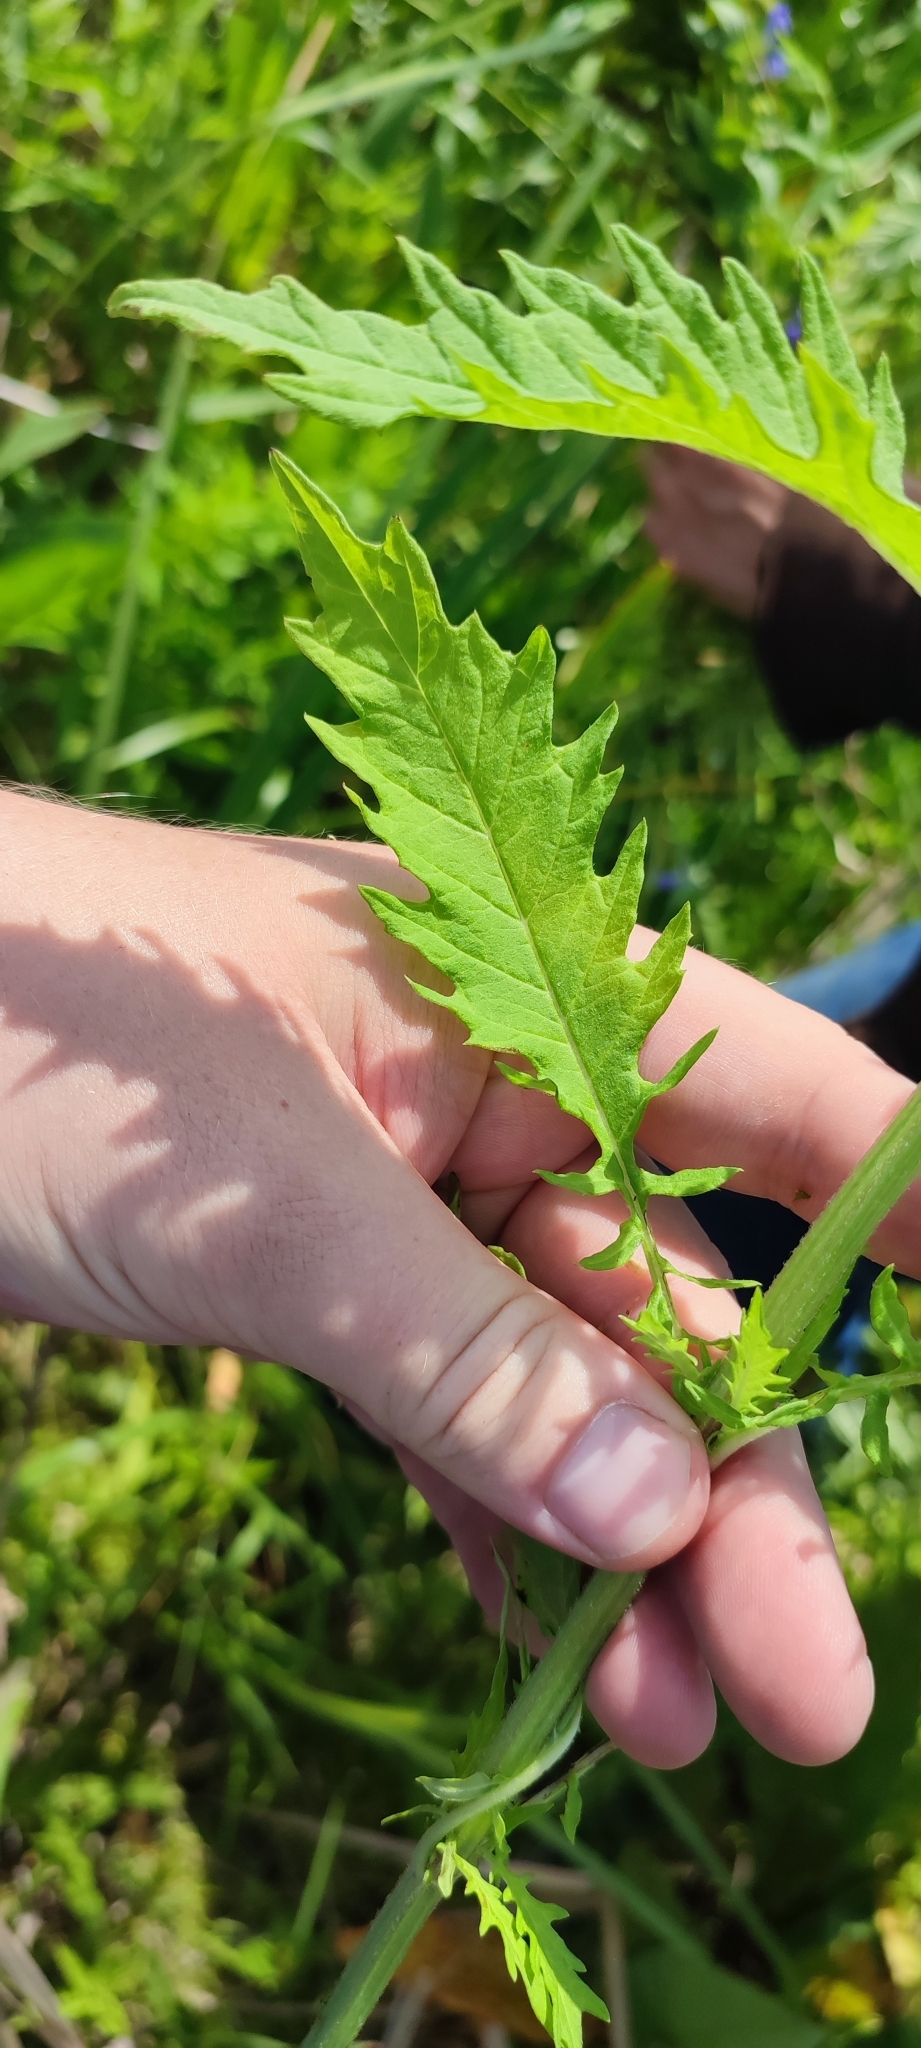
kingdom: Plantae
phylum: Tracheophyta
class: Magnoliopsida
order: Lamiales
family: Lamiaceae
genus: Lycopus
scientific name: Lycopus europaeus
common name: European bugleweed
